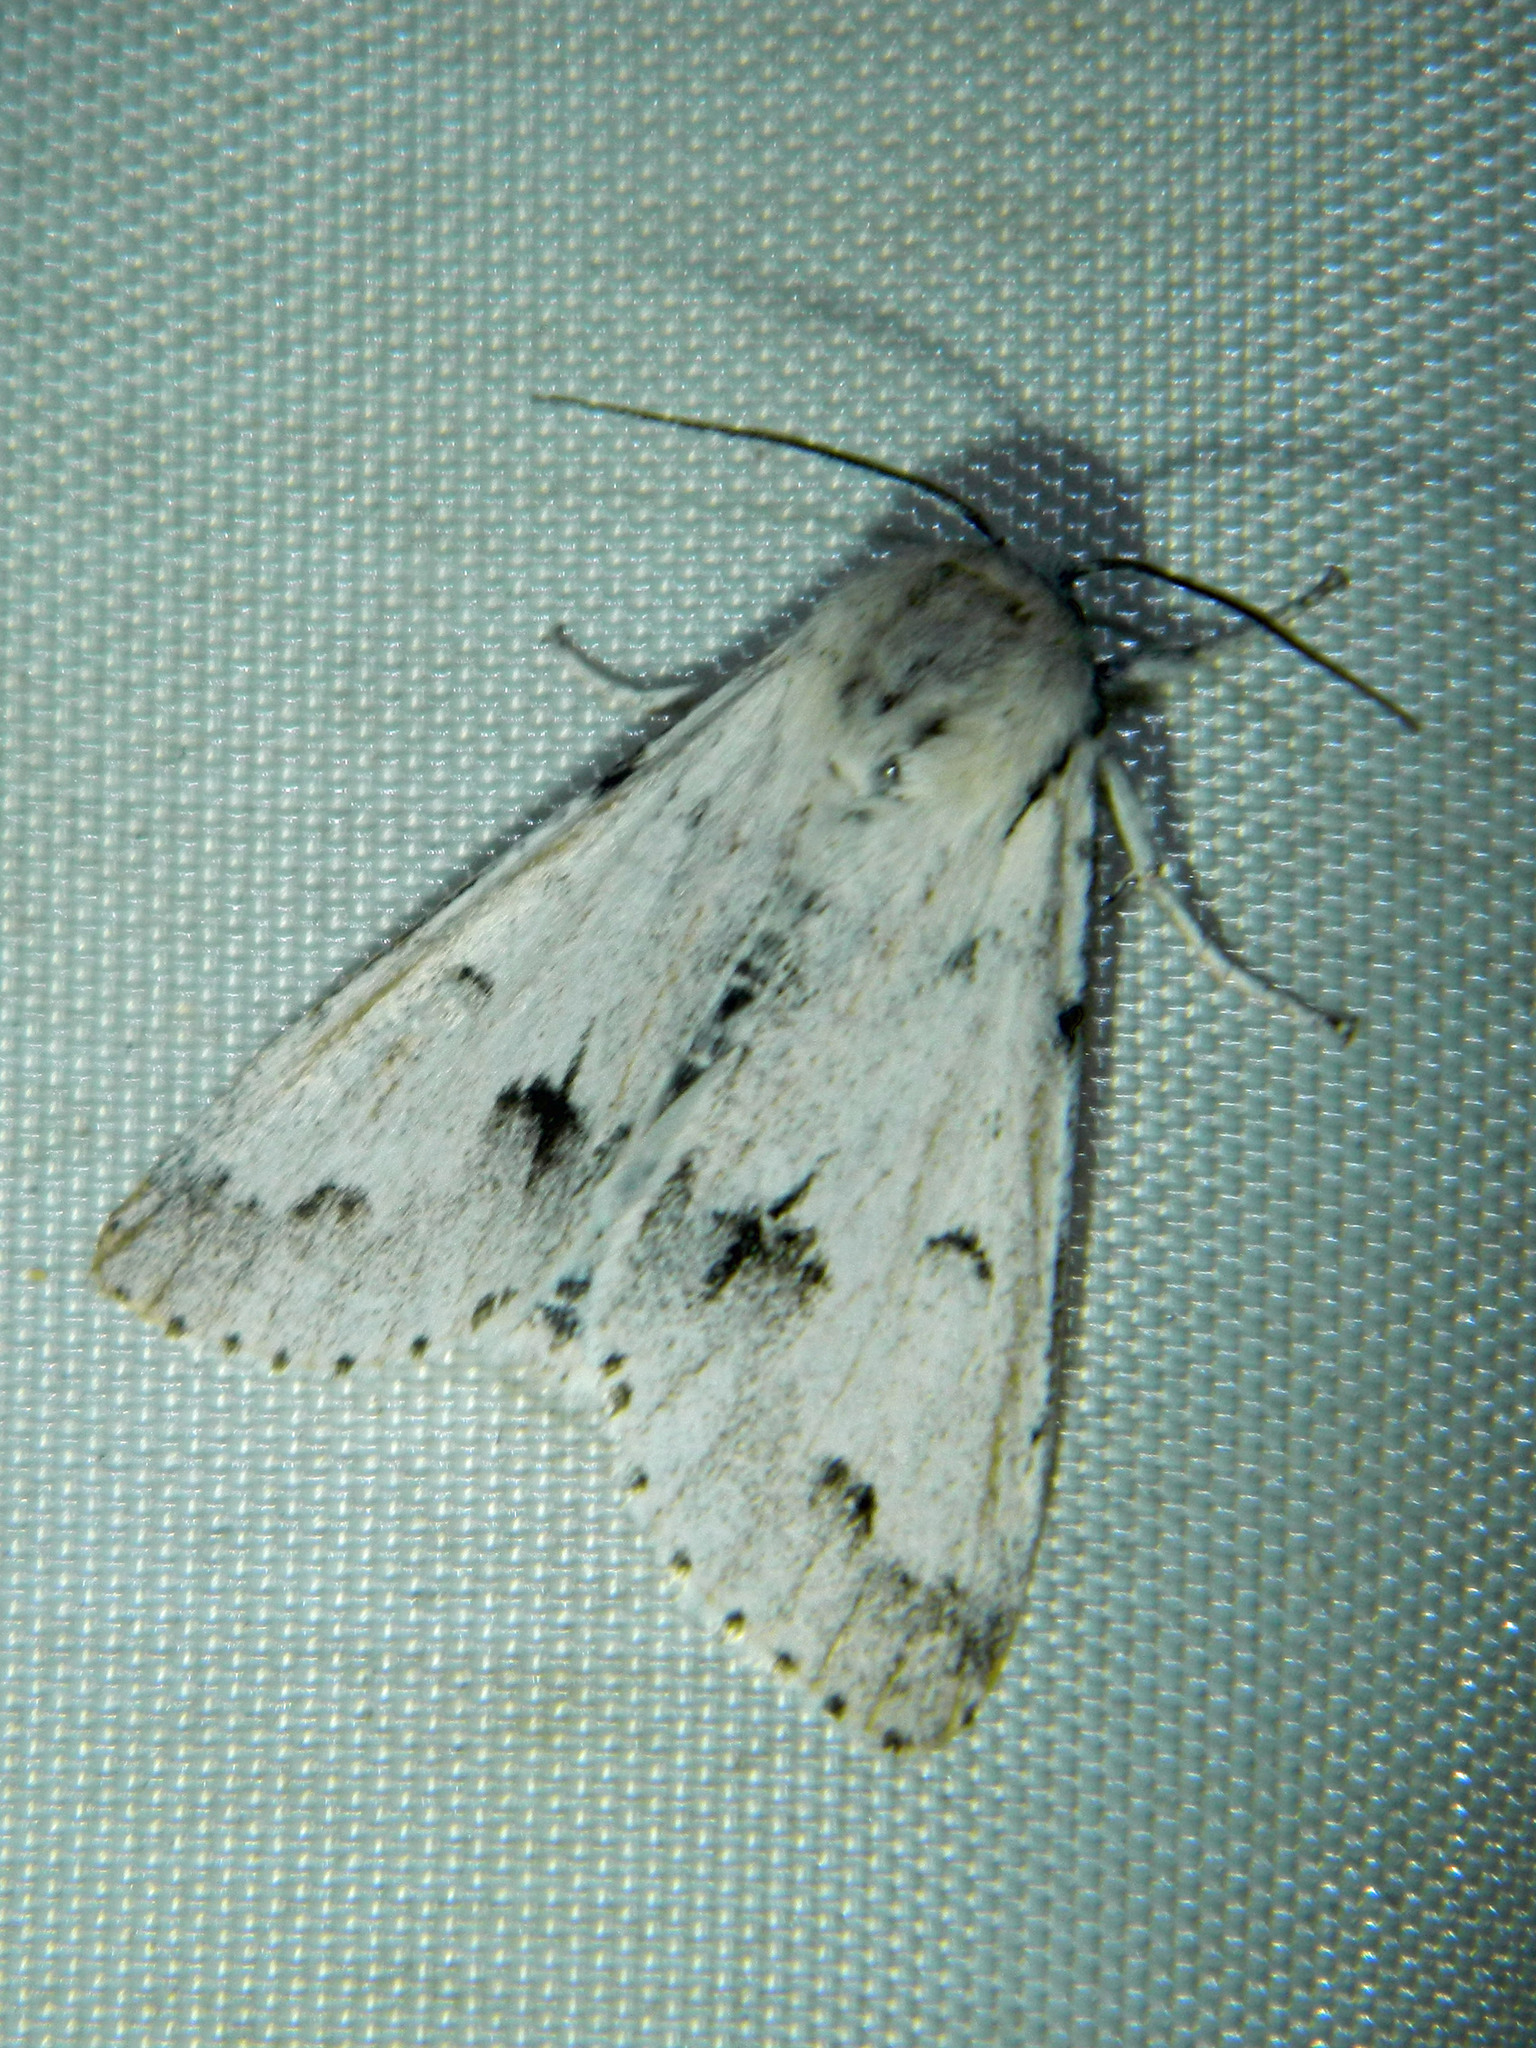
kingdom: Animalia
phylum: Arthropoda
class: Insecta
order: Lepidoptera
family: Noctuidae
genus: Acronicta
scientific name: Acronicta vulpina
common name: Miller dagger
